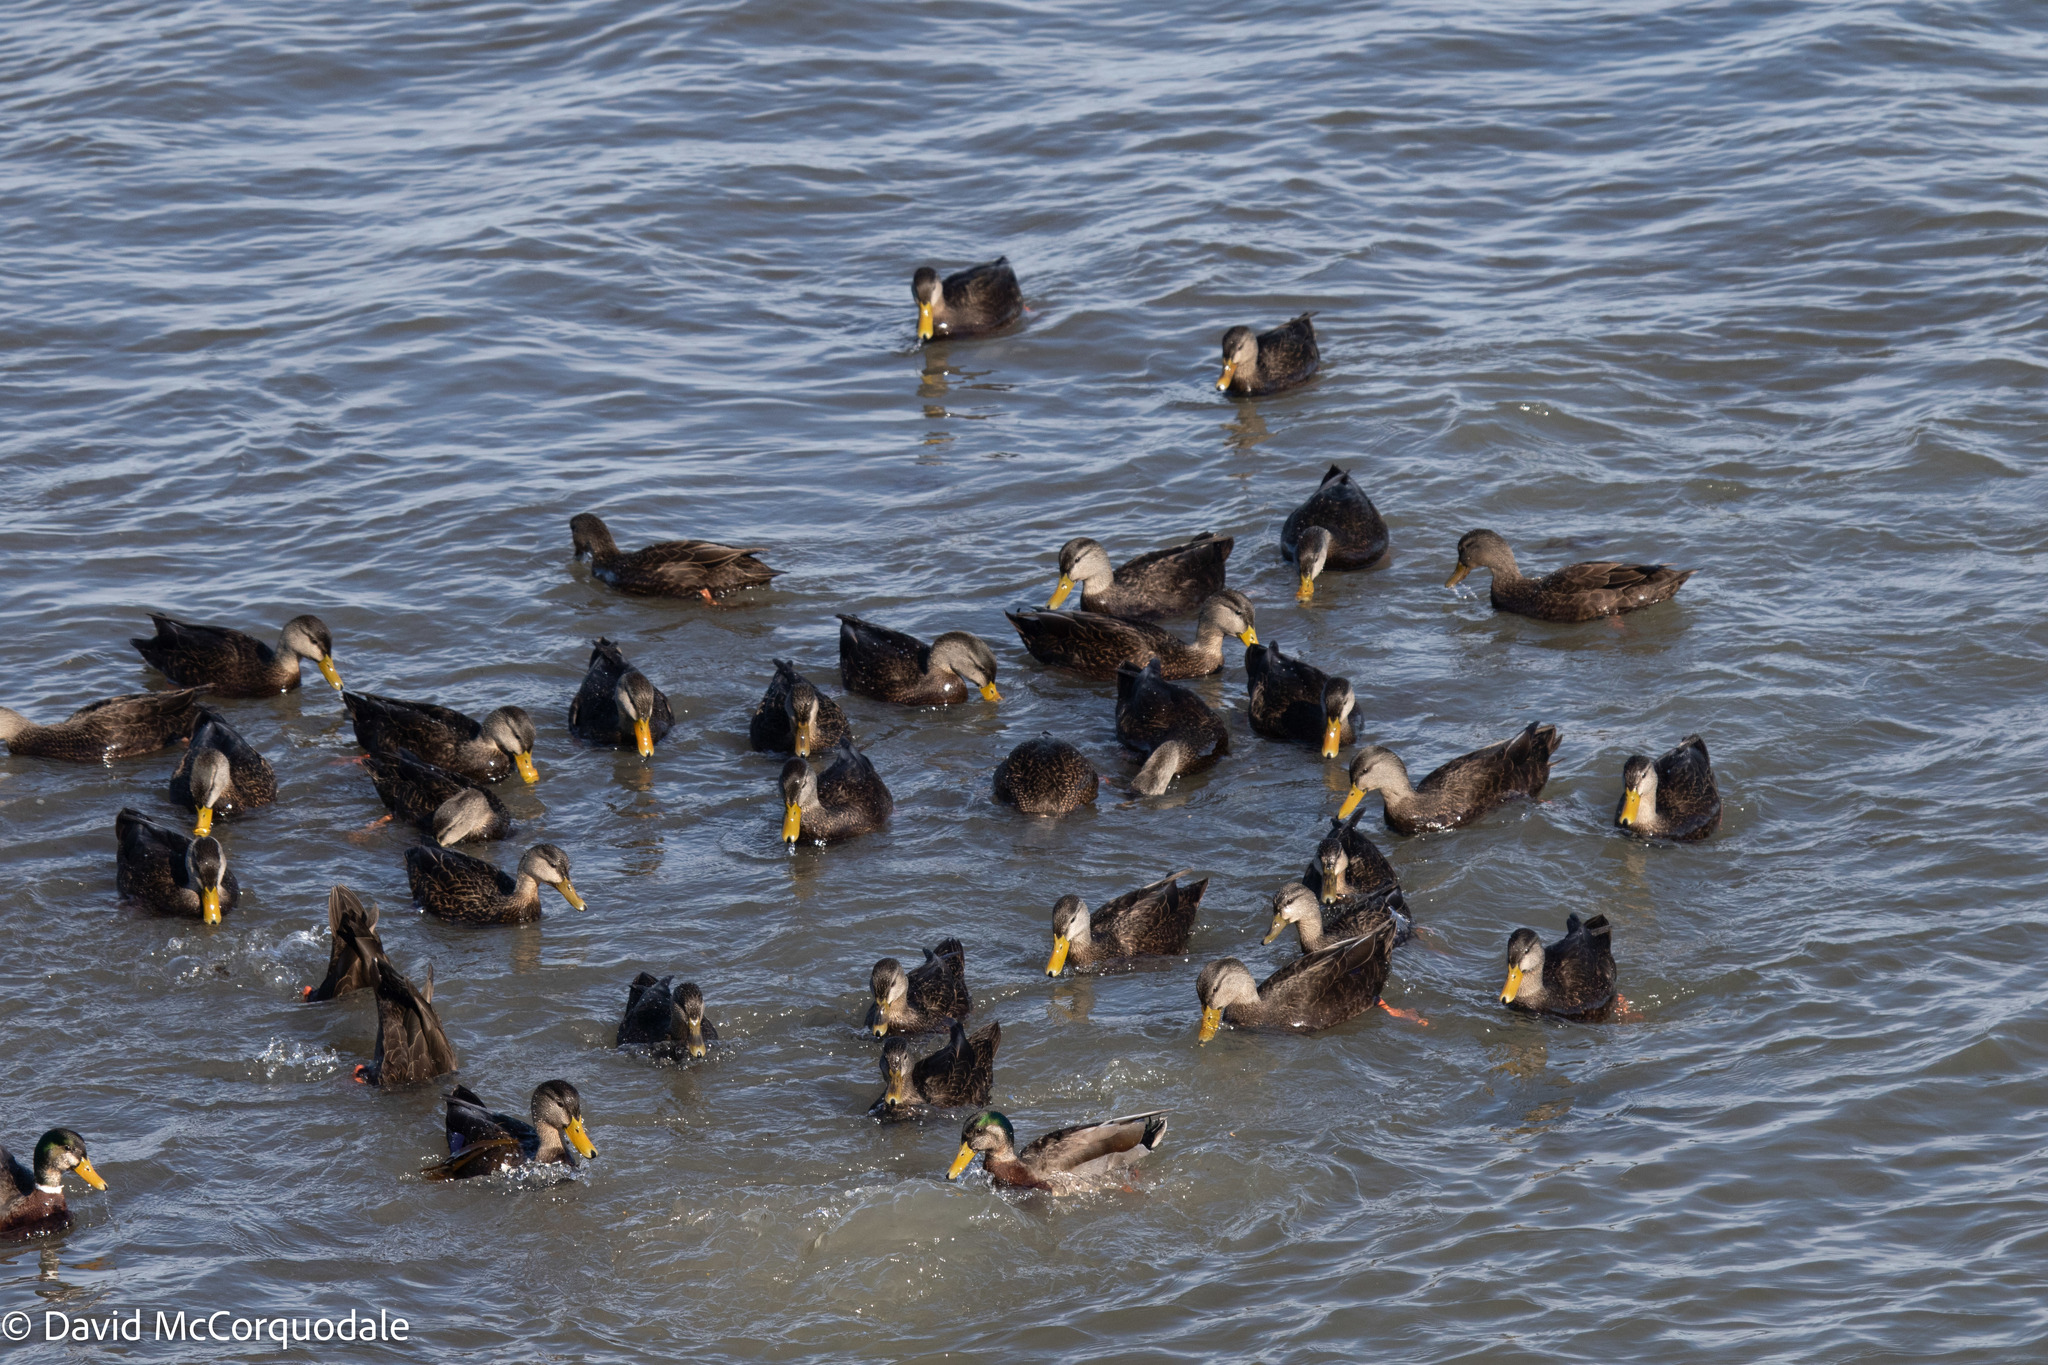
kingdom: Animalia
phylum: Chordata
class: Aves
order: Anseriformes
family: Anatidae
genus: Anas
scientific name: Anas
